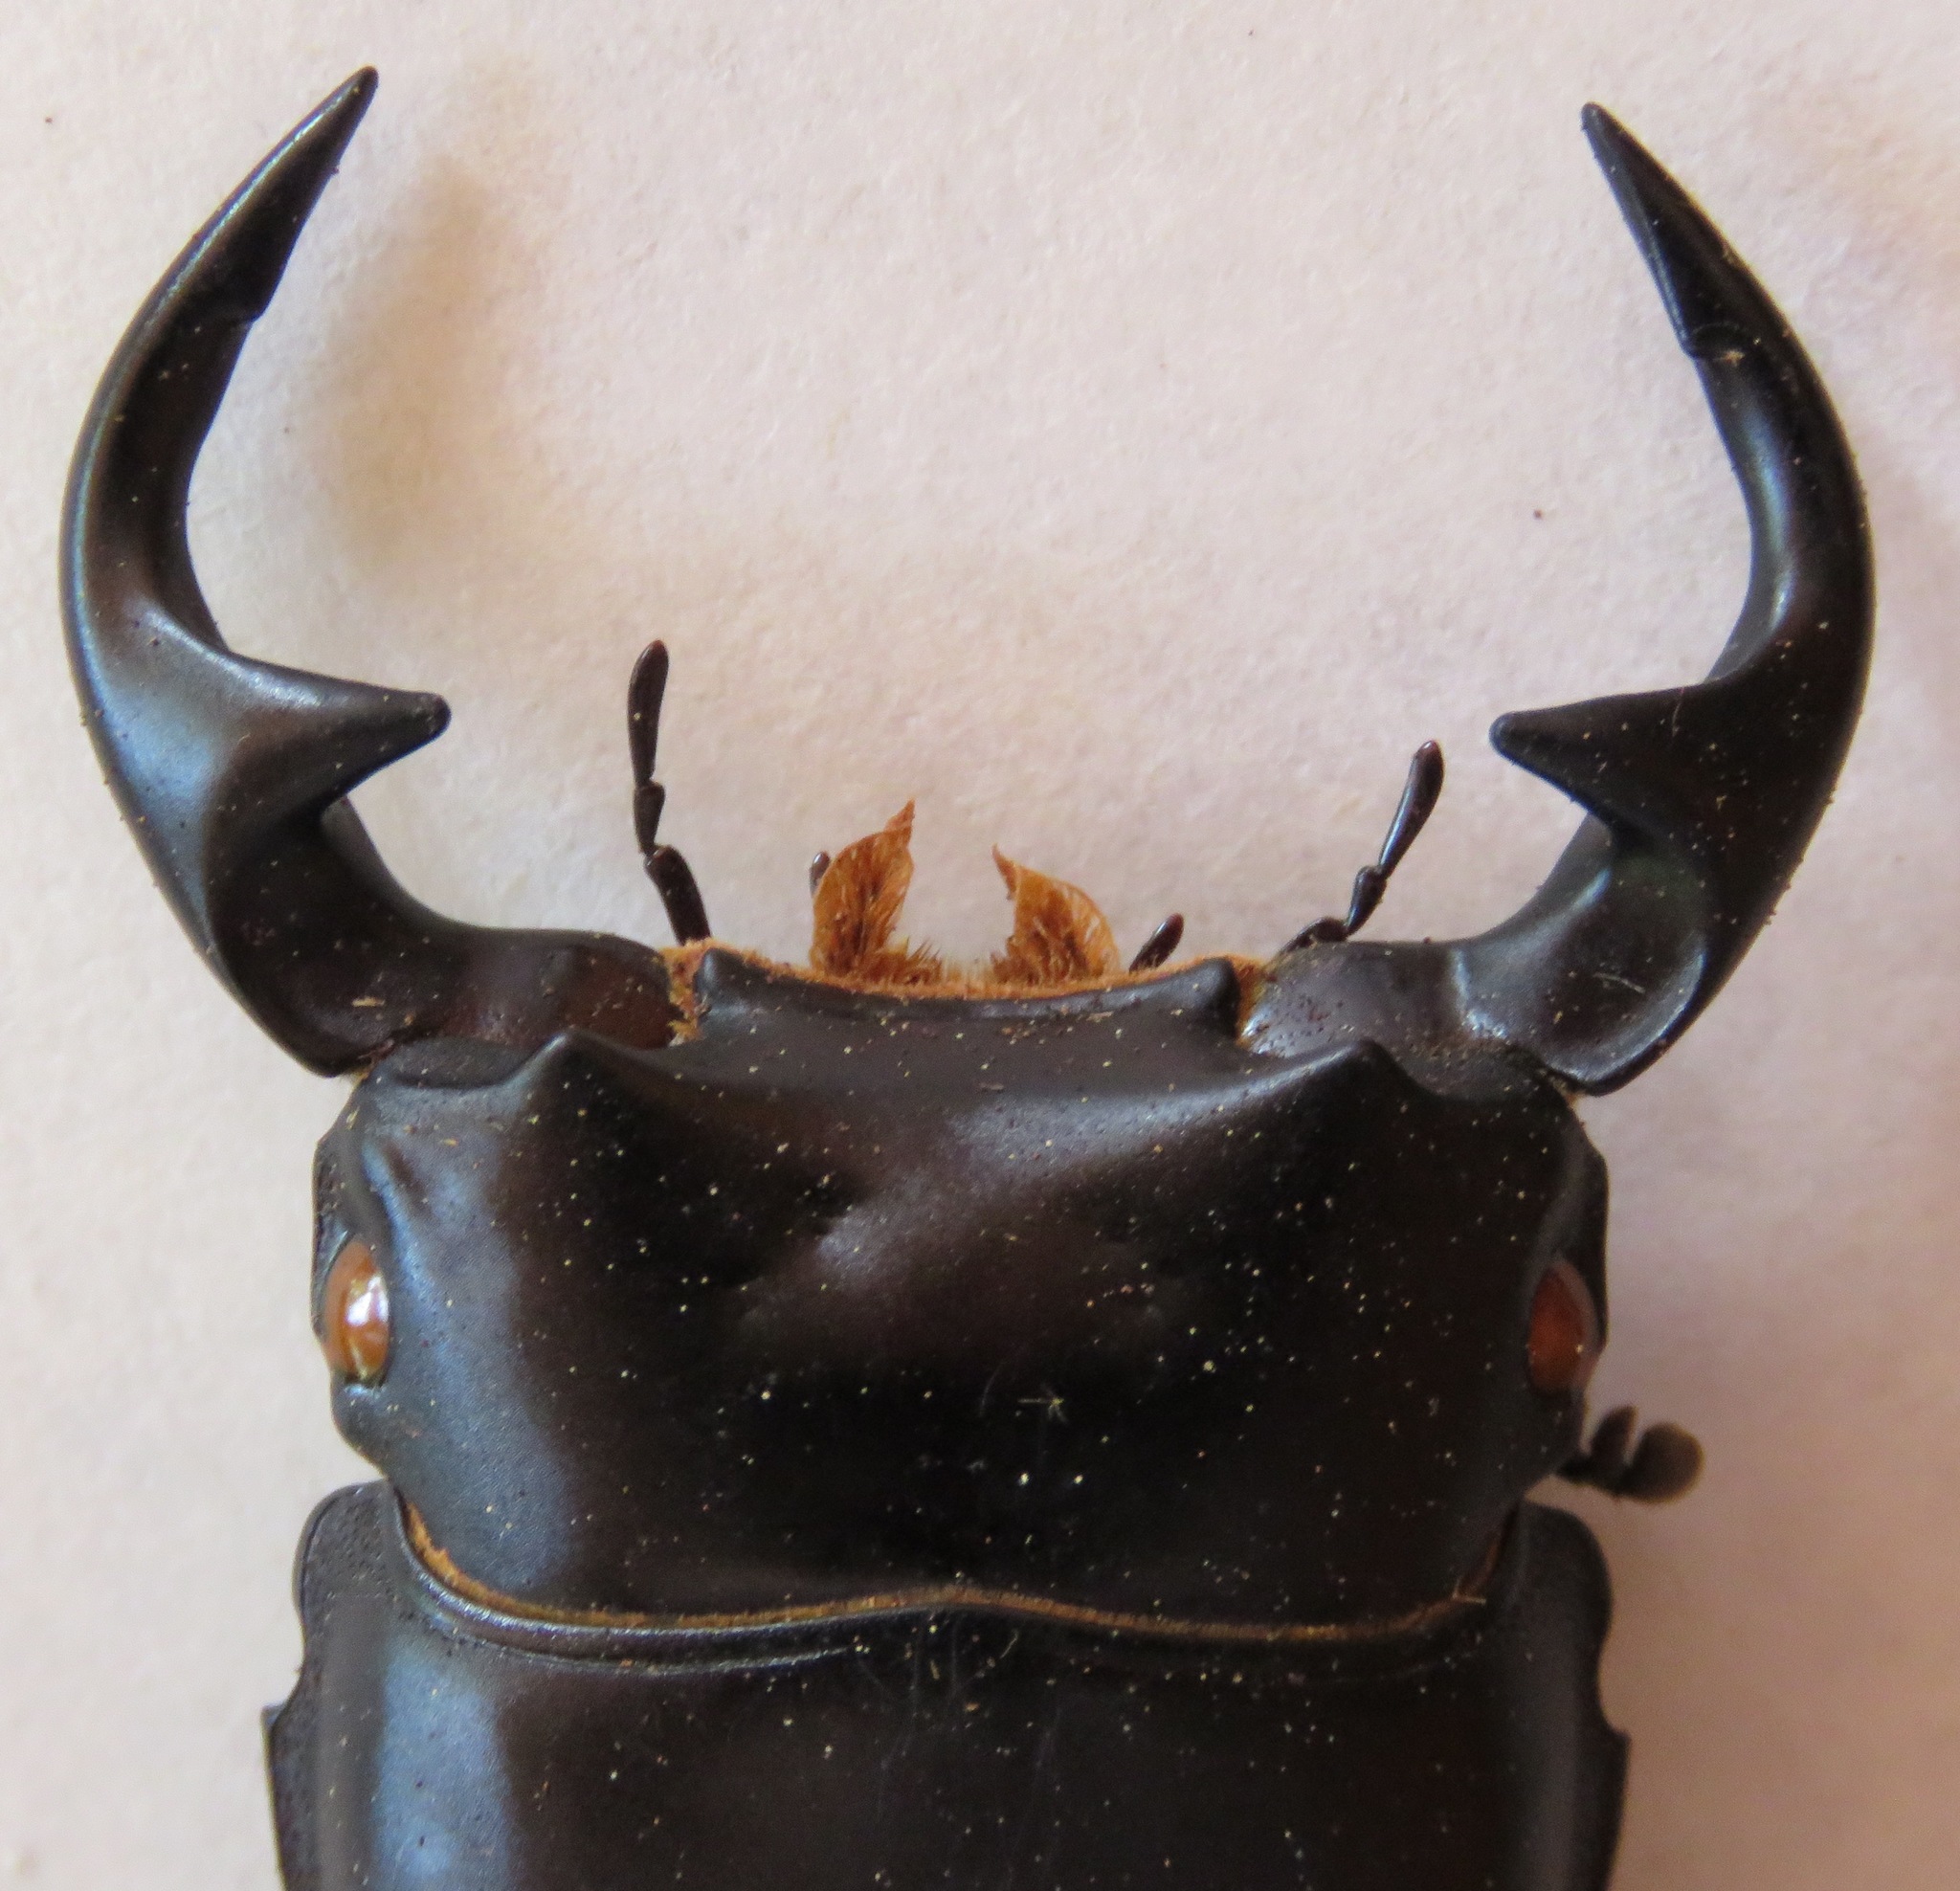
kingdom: Animalia
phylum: Arthropoda
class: Insecta
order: Coleoptera
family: Lucanidae
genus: Dorcus
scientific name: Dorcus curvidens
